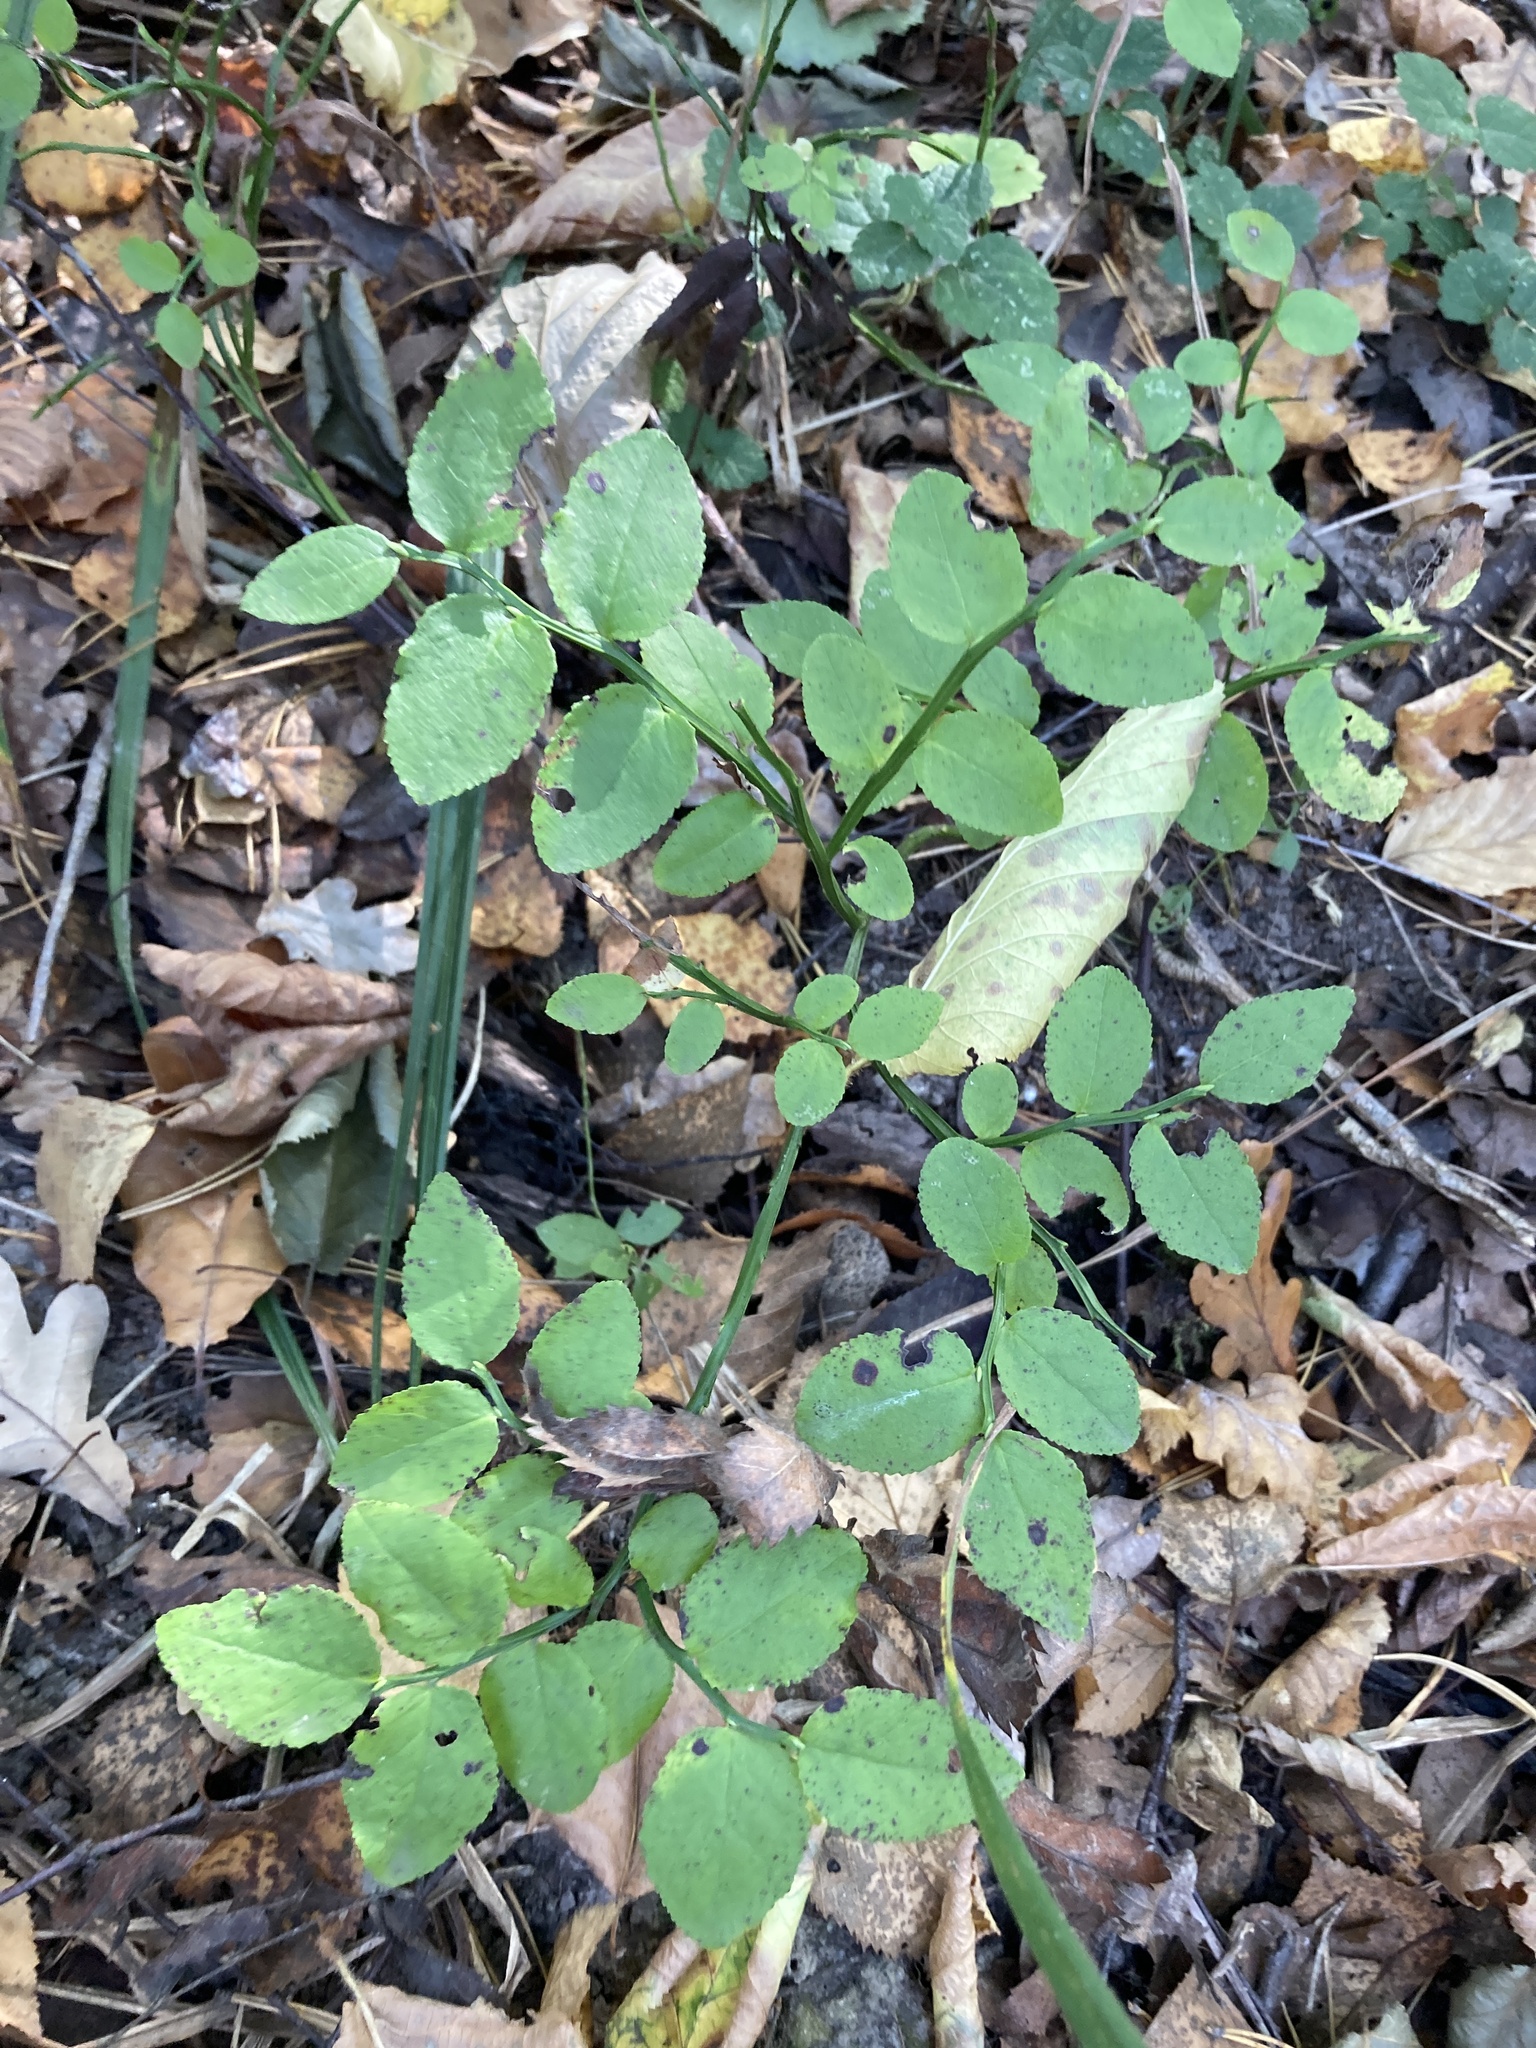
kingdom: Plantae
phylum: Tracheophyta
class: Magnoliopsida
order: Ericales
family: Ericaceae
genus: Vaccinium
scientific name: Vaccinium myrtillus
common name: Bilberry
